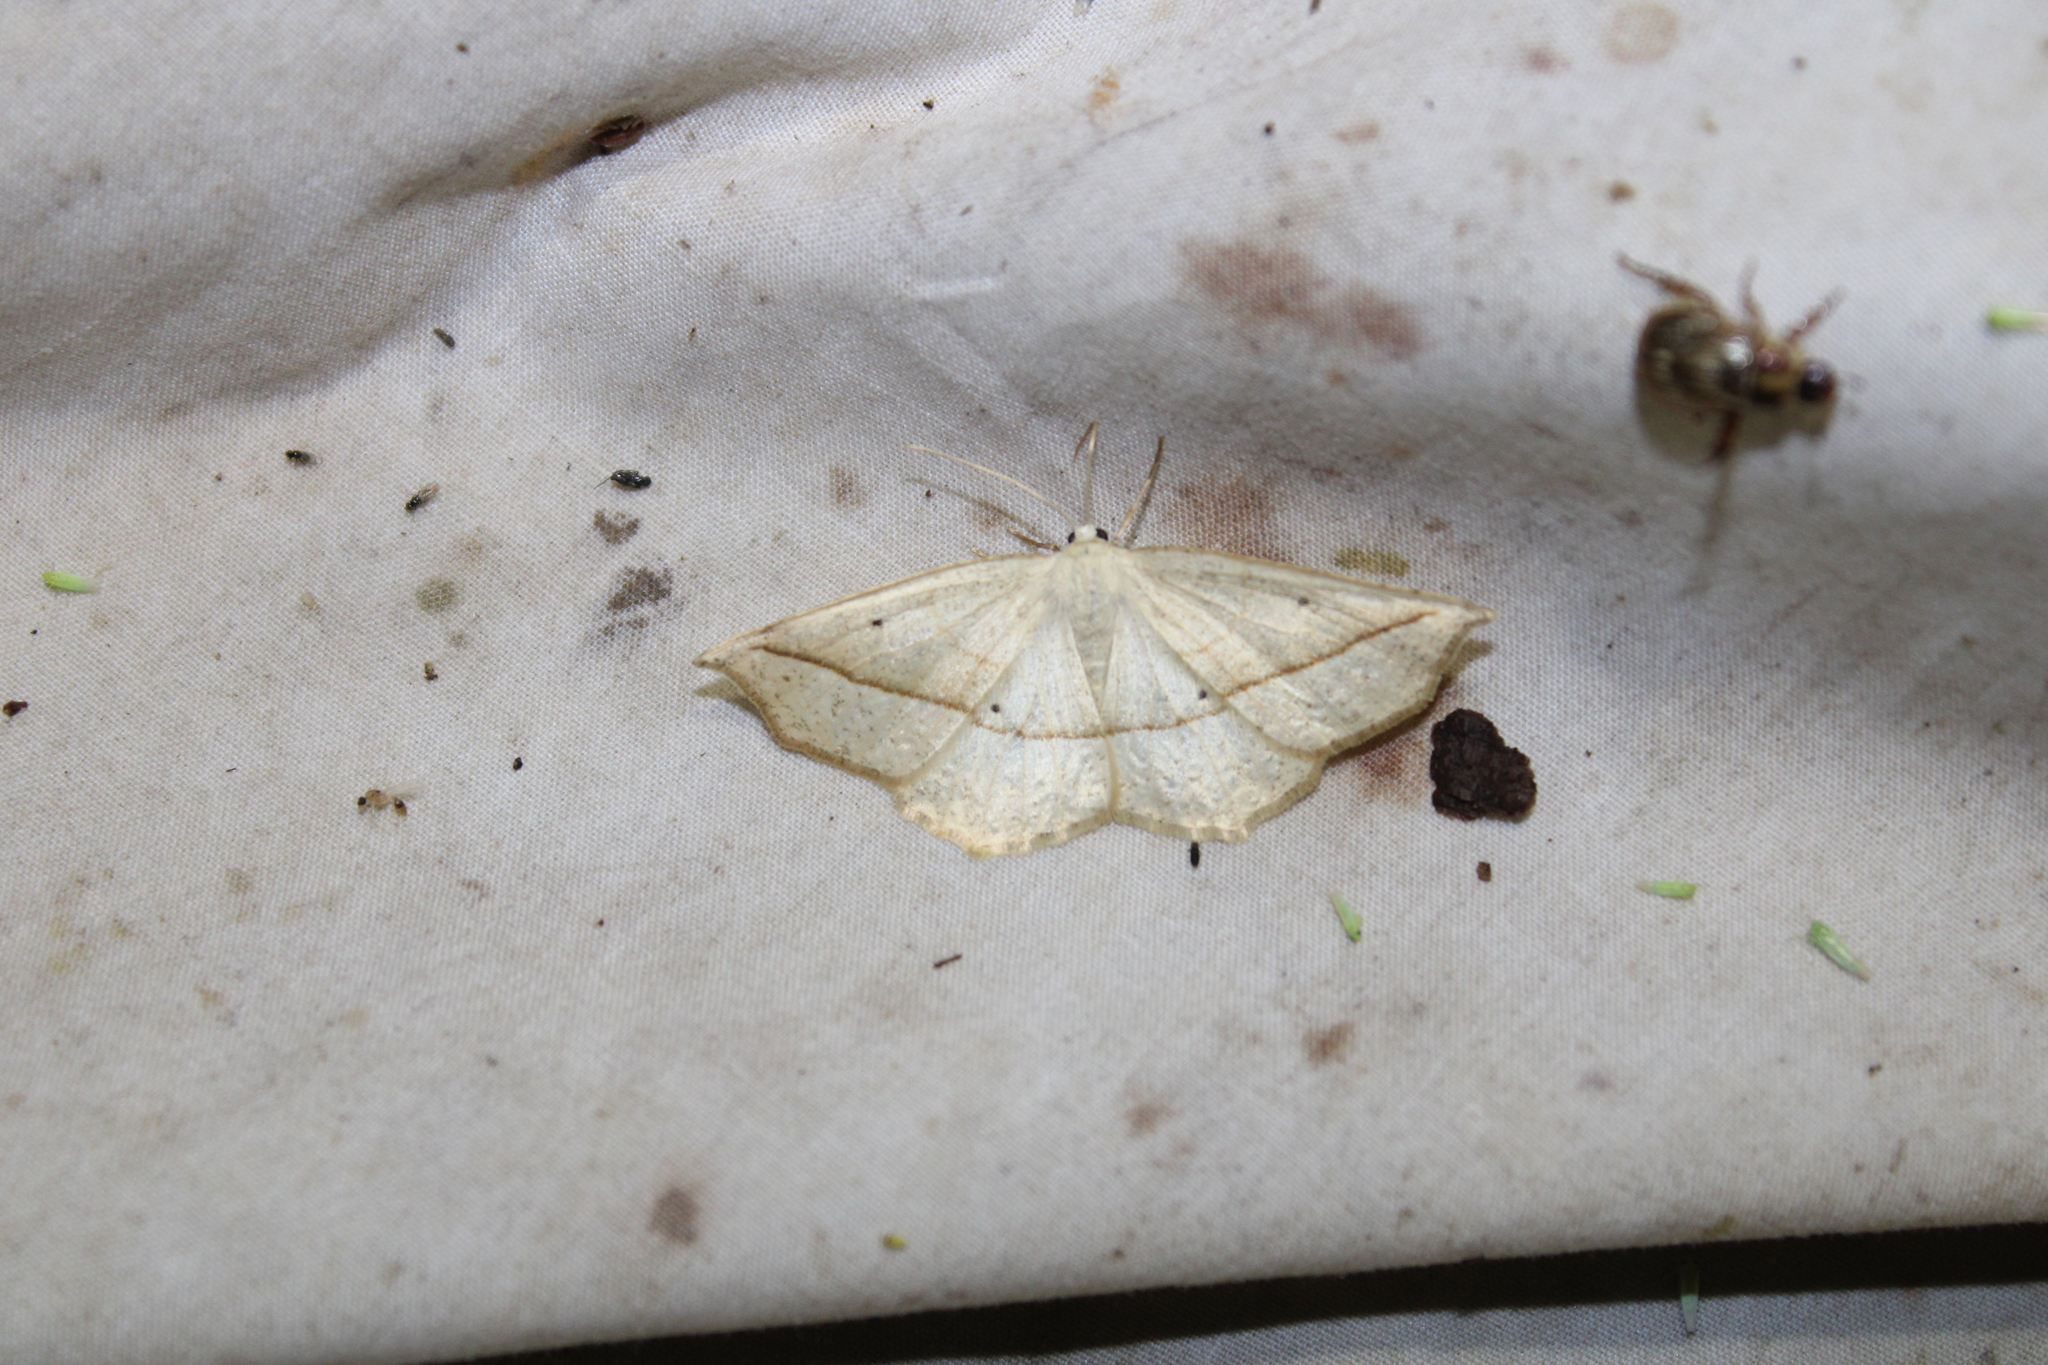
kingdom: Animalia
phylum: Arthropoda
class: Insecta
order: Lepidoptera
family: Geometridae
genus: Eusarca
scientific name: Eusarca confusaria
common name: Confused eusarca
